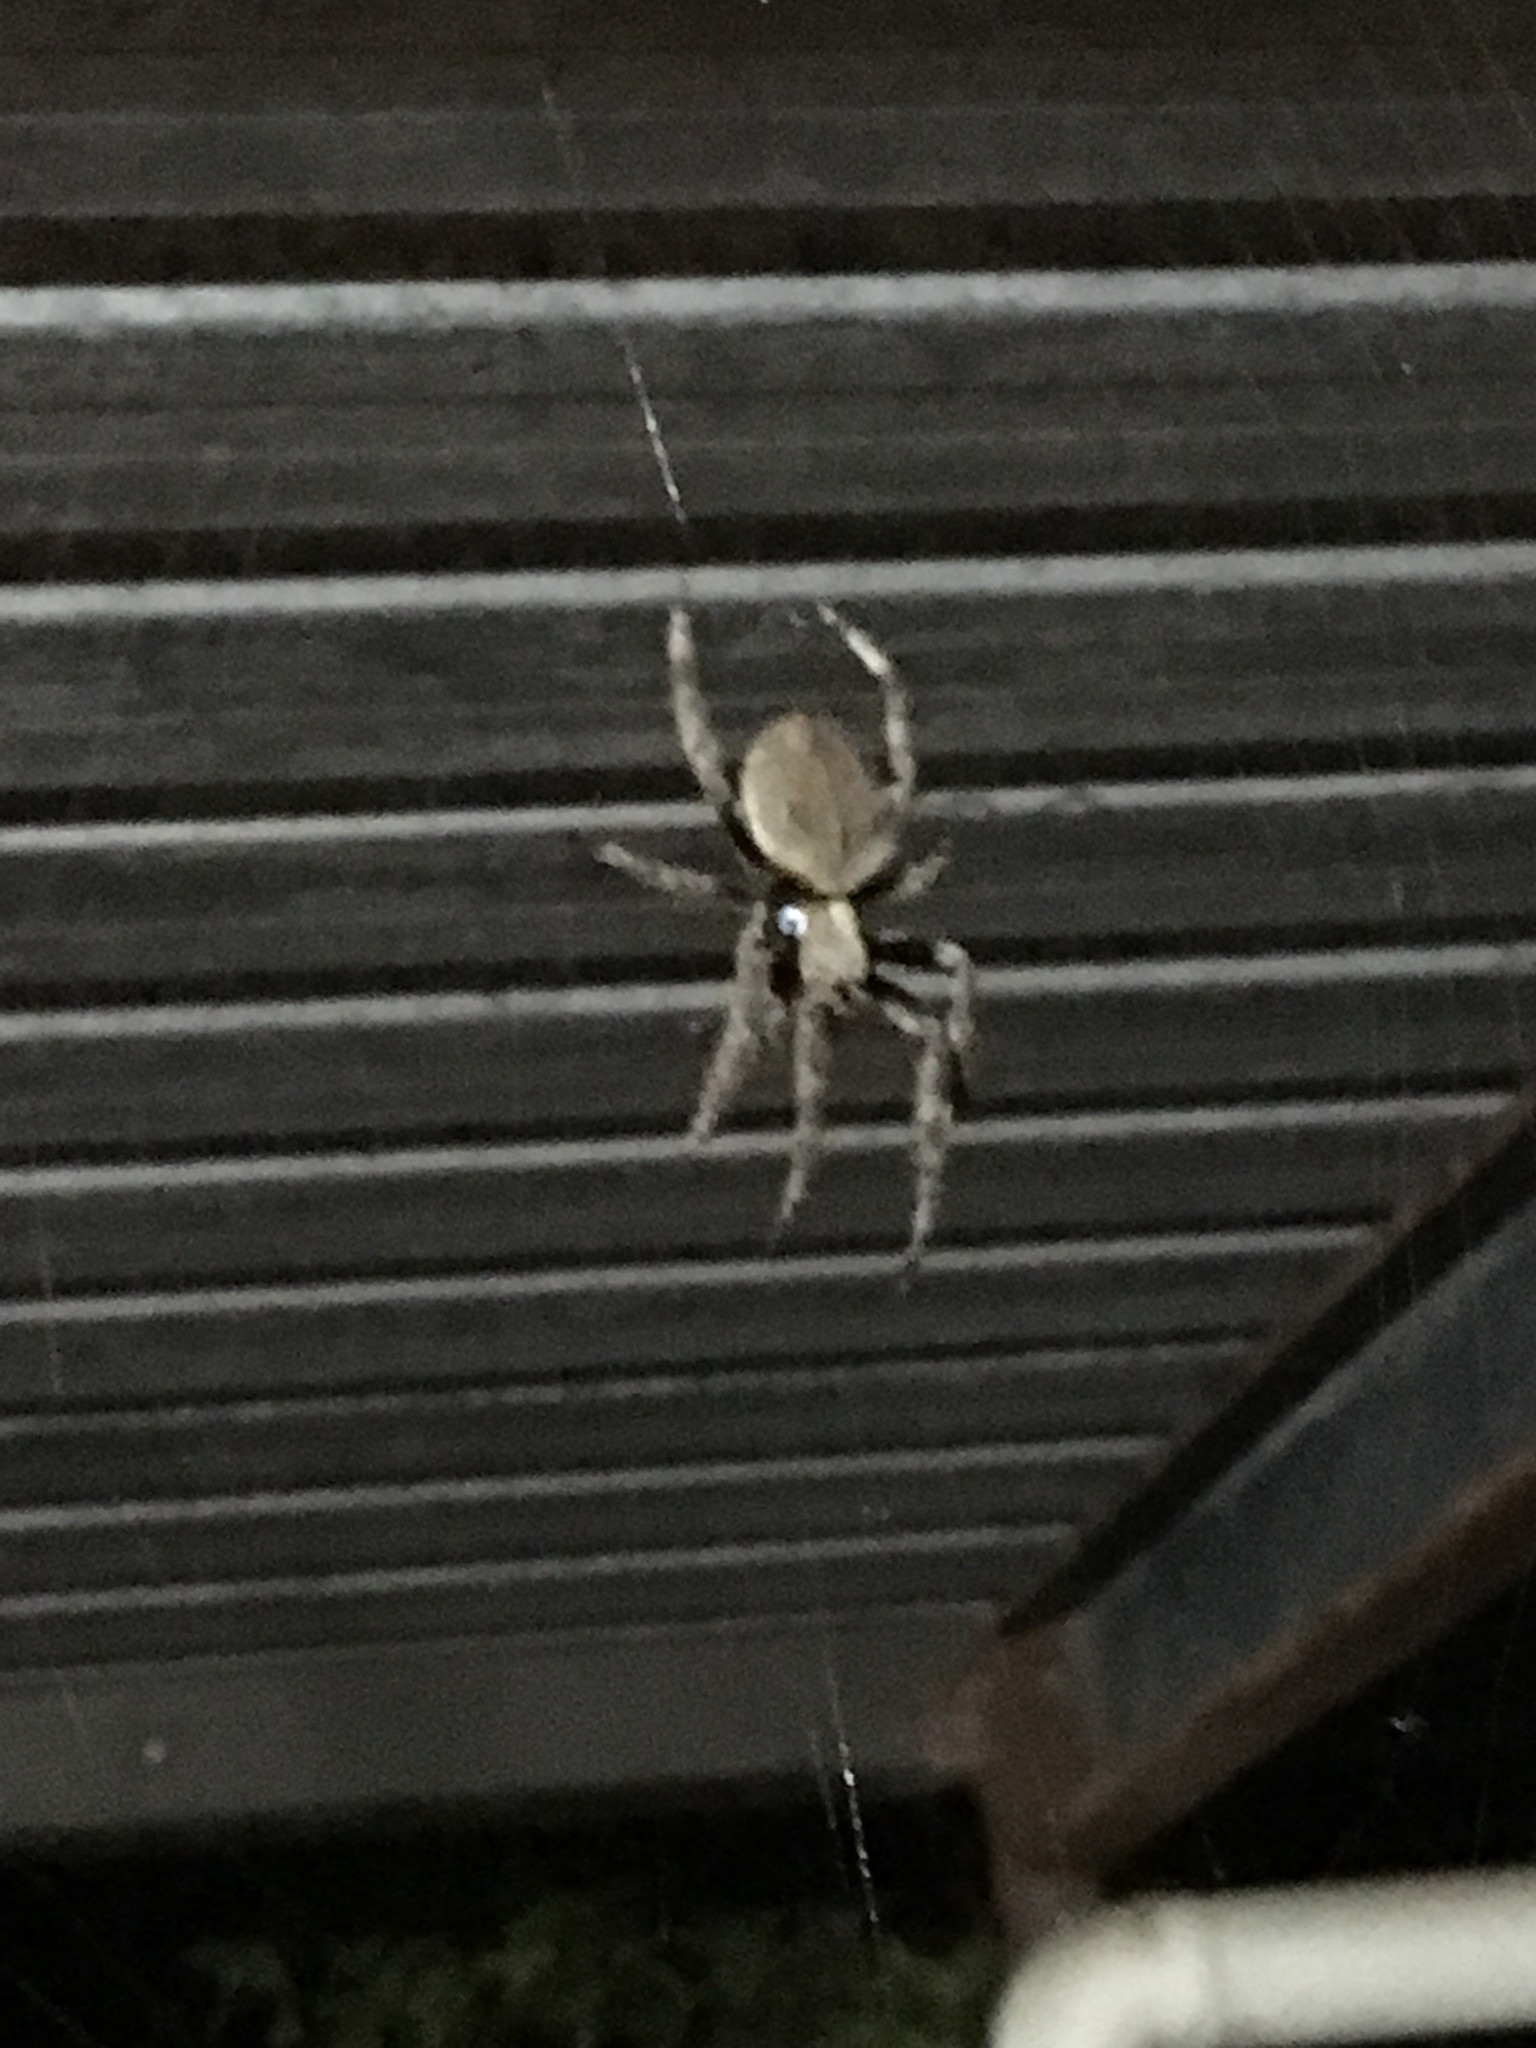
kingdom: Animalia
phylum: Arthropoda
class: Arachnida
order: Araneae
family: Araneidae
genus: Hortophora
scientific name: Hortophora transmarina
